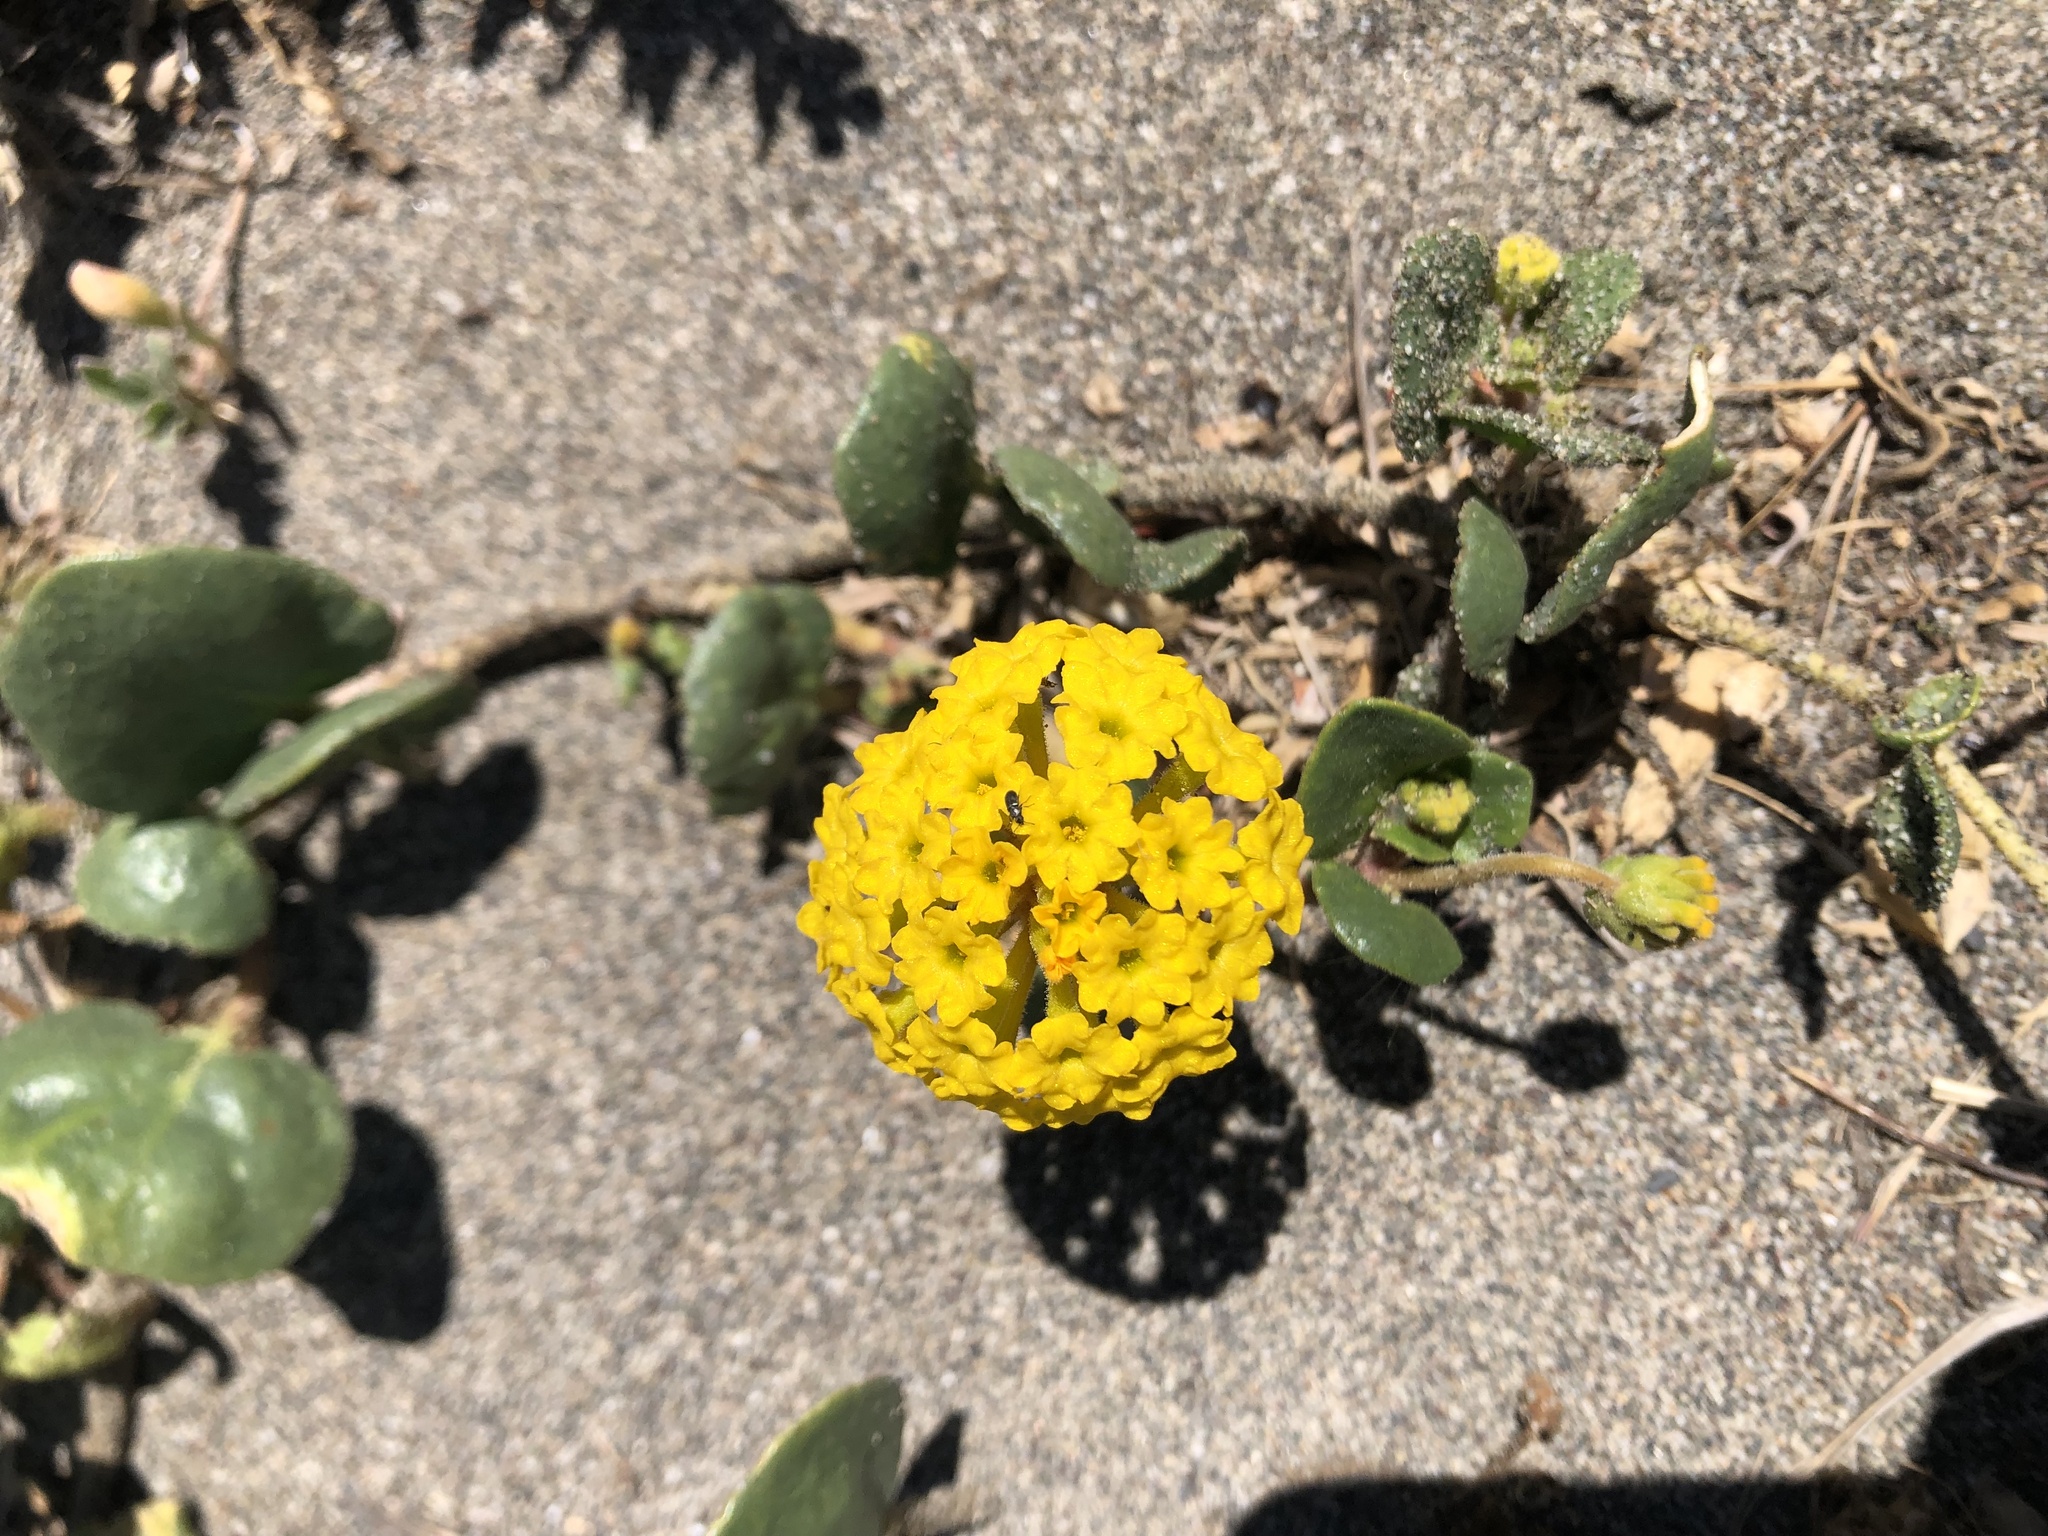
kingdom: Plantae
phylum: Tracheophyta
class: Magnoliopsida
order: Caryophyllales
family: Nyctaginaceae
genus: Abronia
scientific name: Abronia latifolia
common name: Yellow sand-verbena
